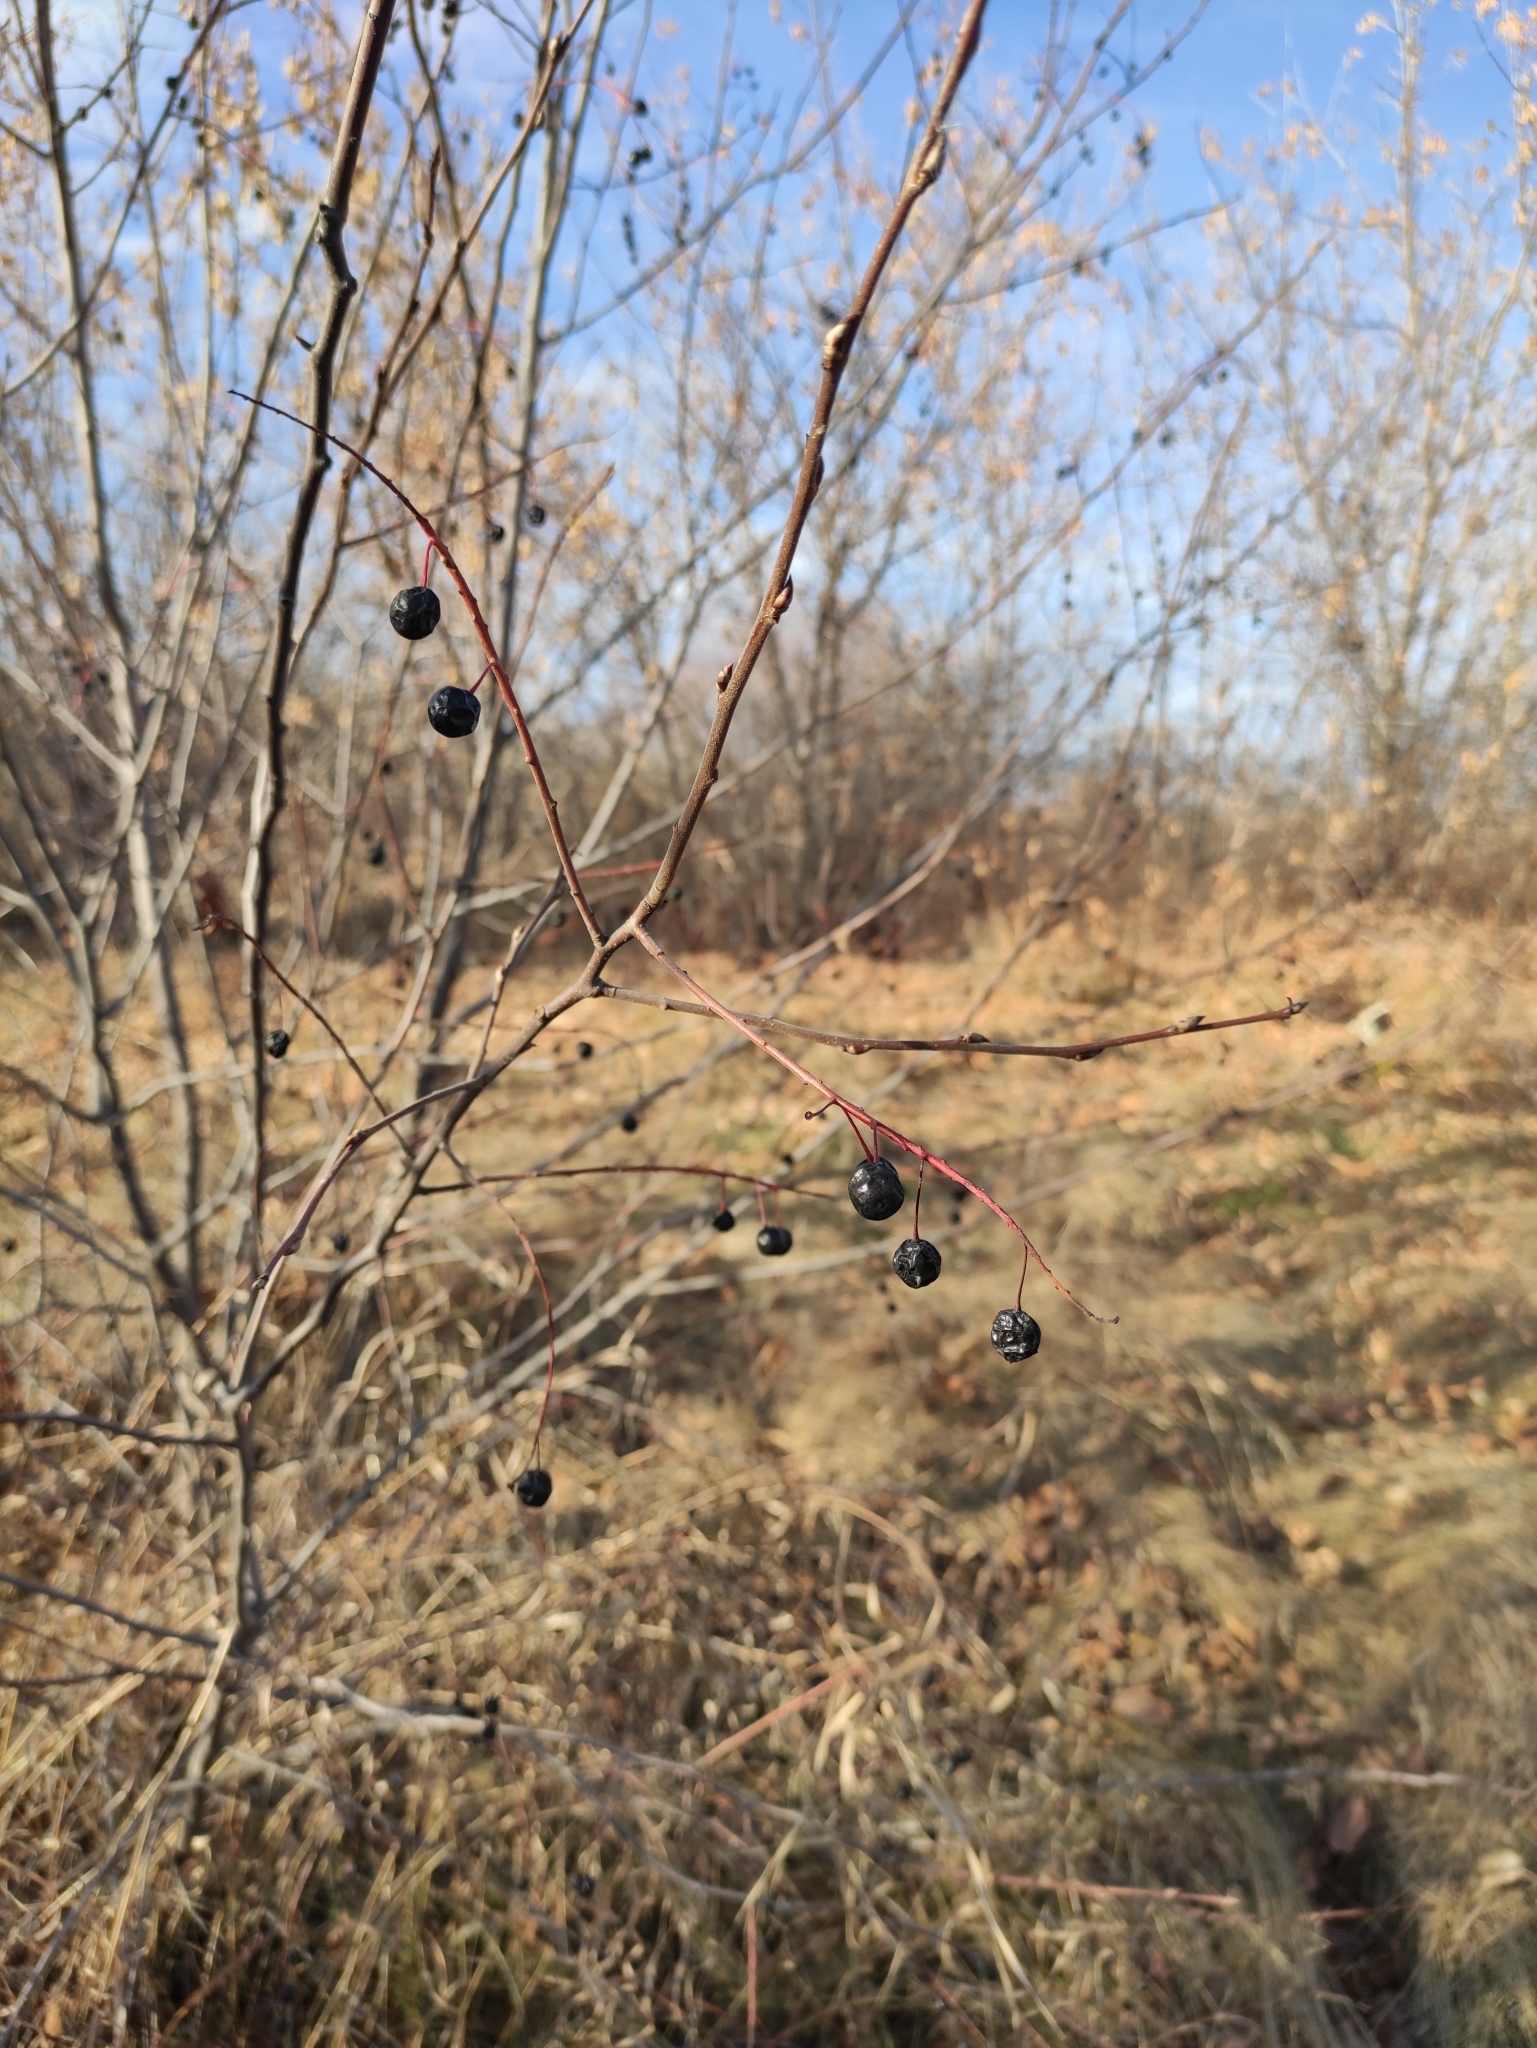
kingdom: Plantae
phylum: Tracheophyta
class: Magnoliopsida
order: Rosales
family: Rosaceae
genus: Prunus
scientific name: Prunus padus
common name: Bird cherry
